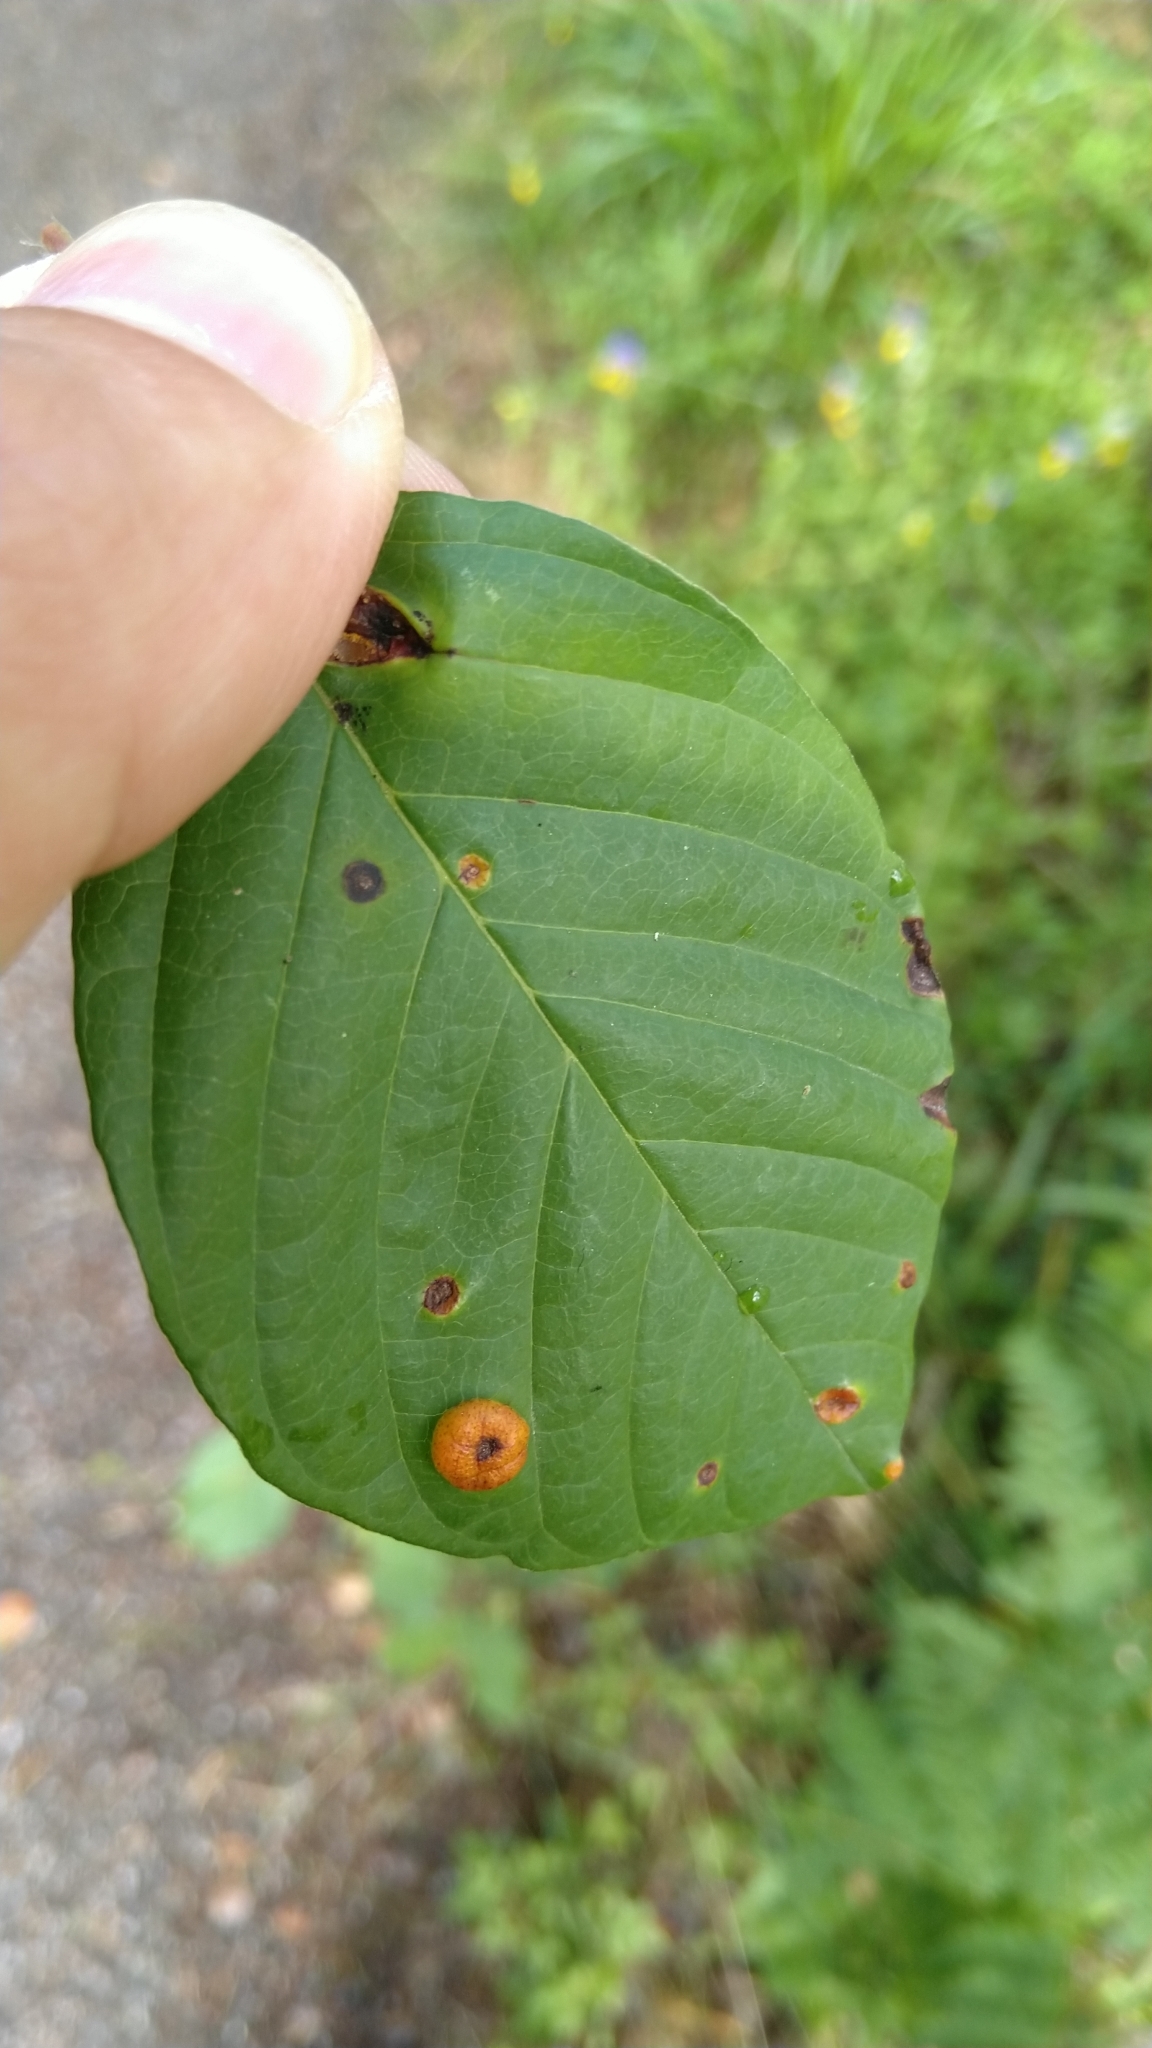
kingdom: Fungi
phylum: Basidiomycota
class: Pucciniomycetes
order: Pucciniales
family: Pucciniaceae
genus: Puccinia
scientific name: Puccinia coronata
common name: Crown rust
